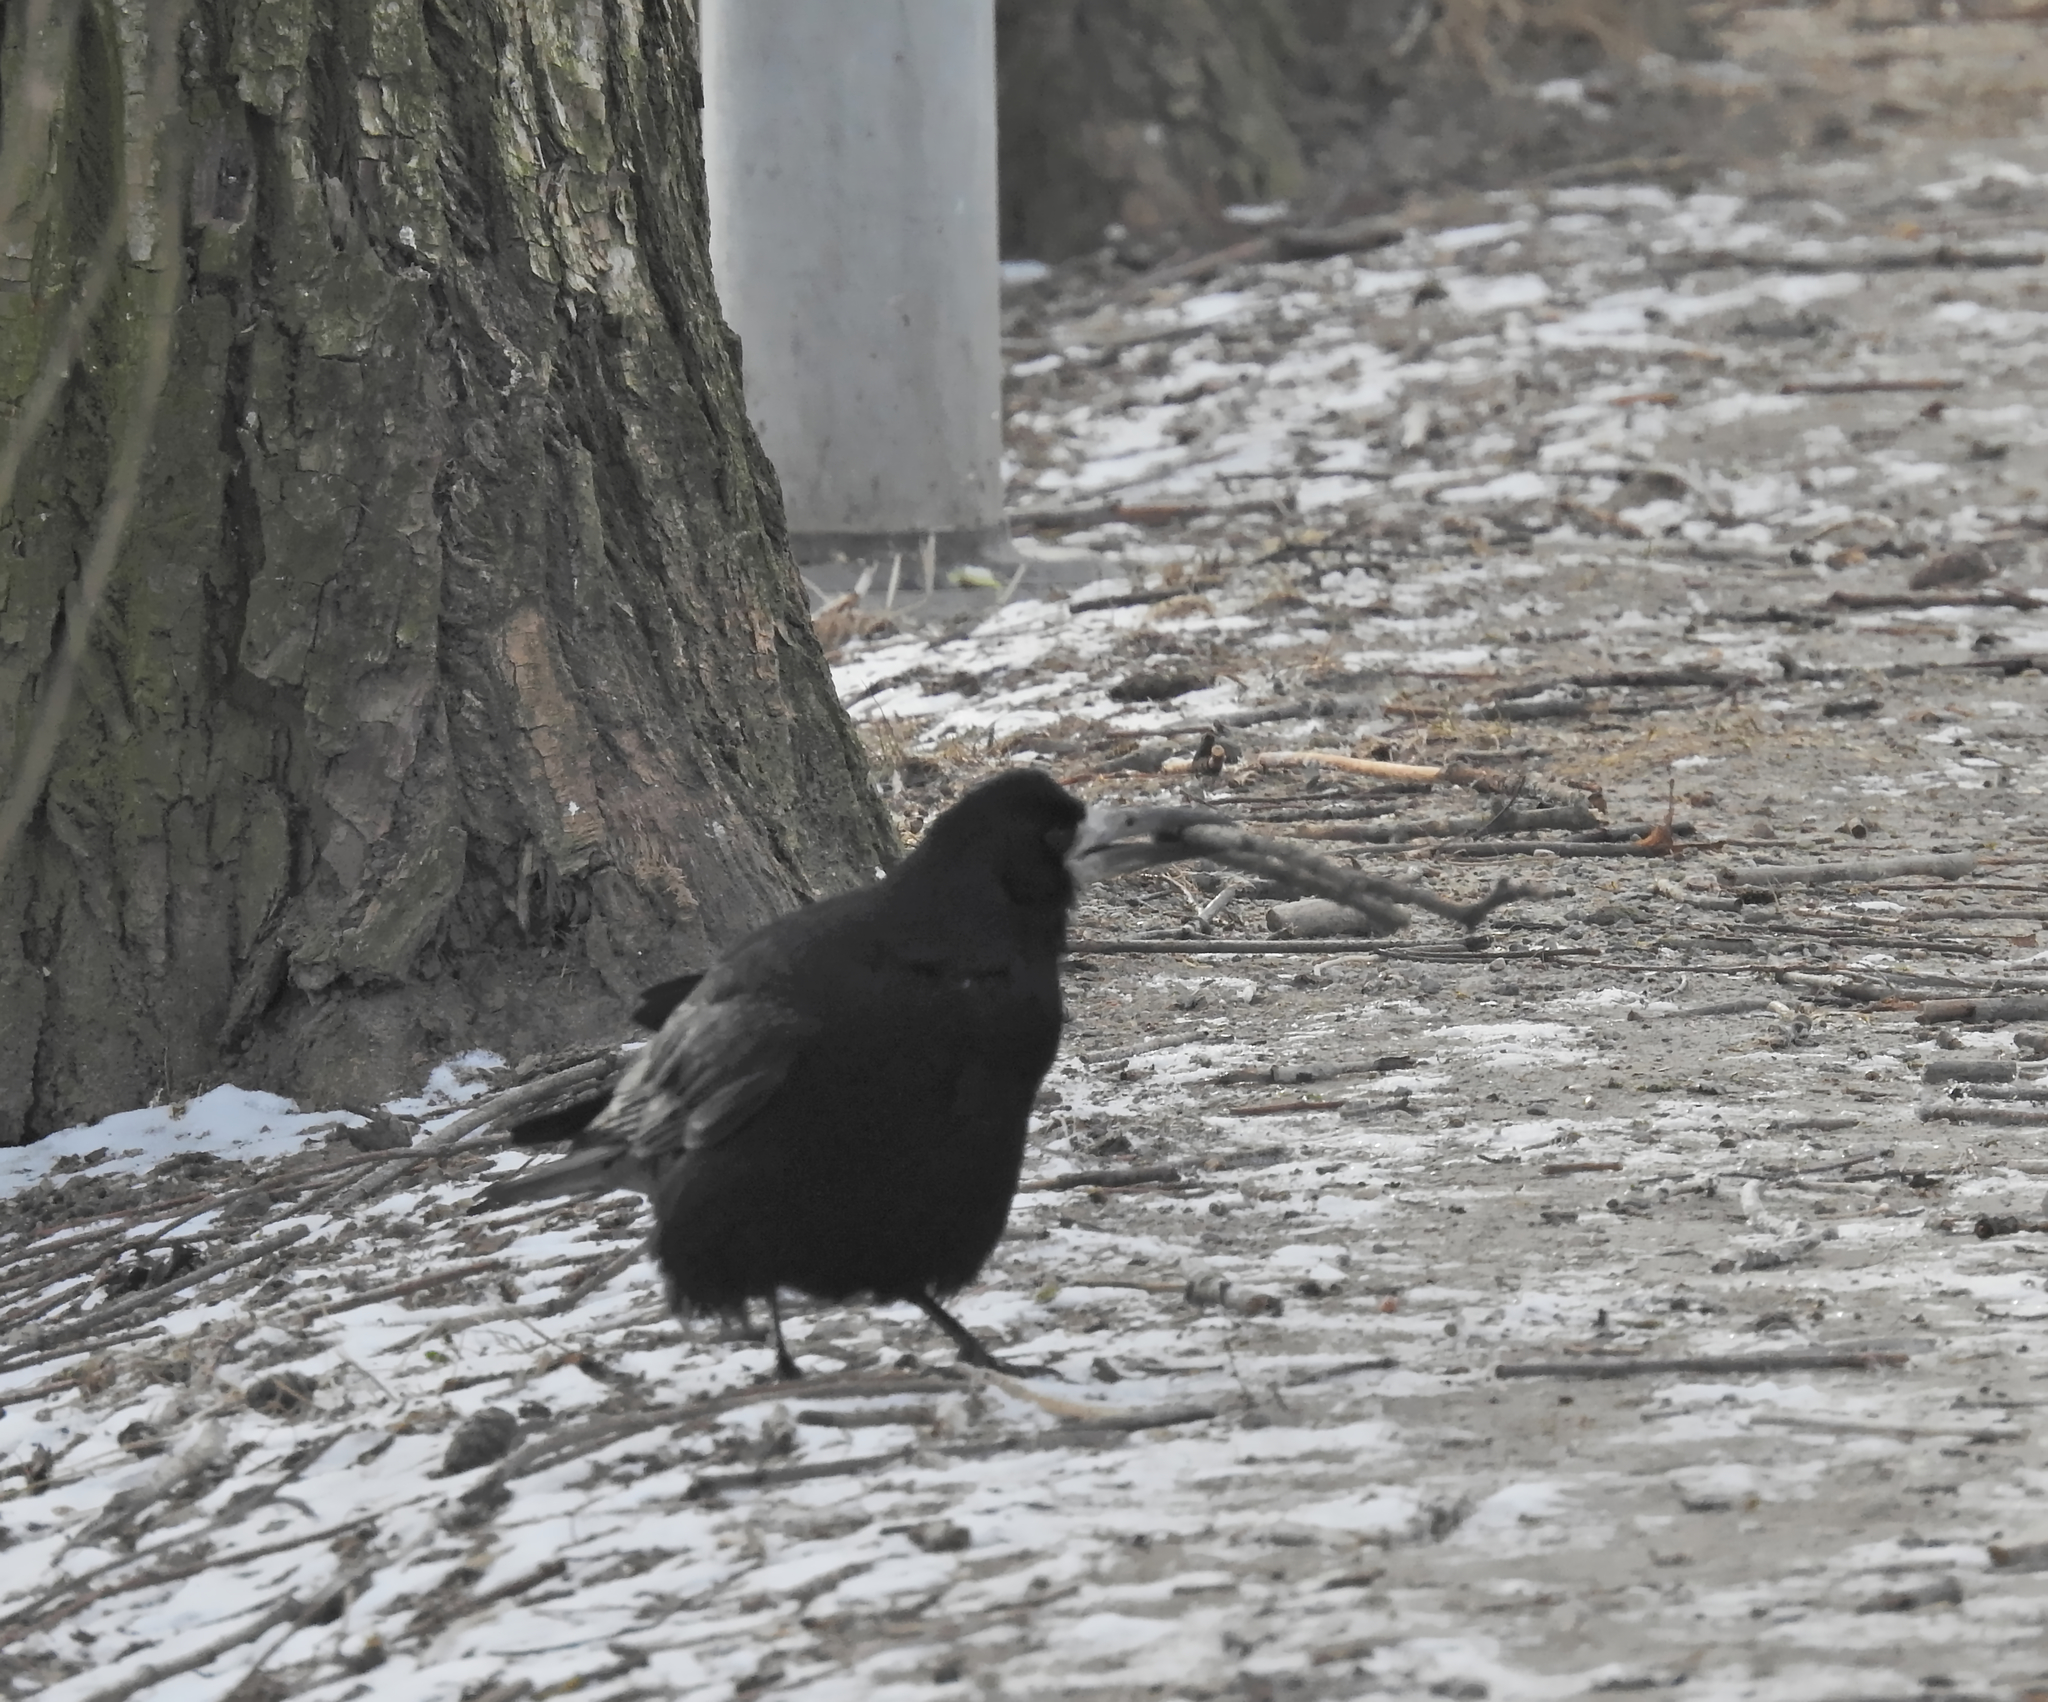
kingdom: Animalia
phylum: Chordata
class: Aves
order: Passeriformes
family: Corvidae
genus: Corvus
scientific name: Corvus frugilegus
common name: Rook
